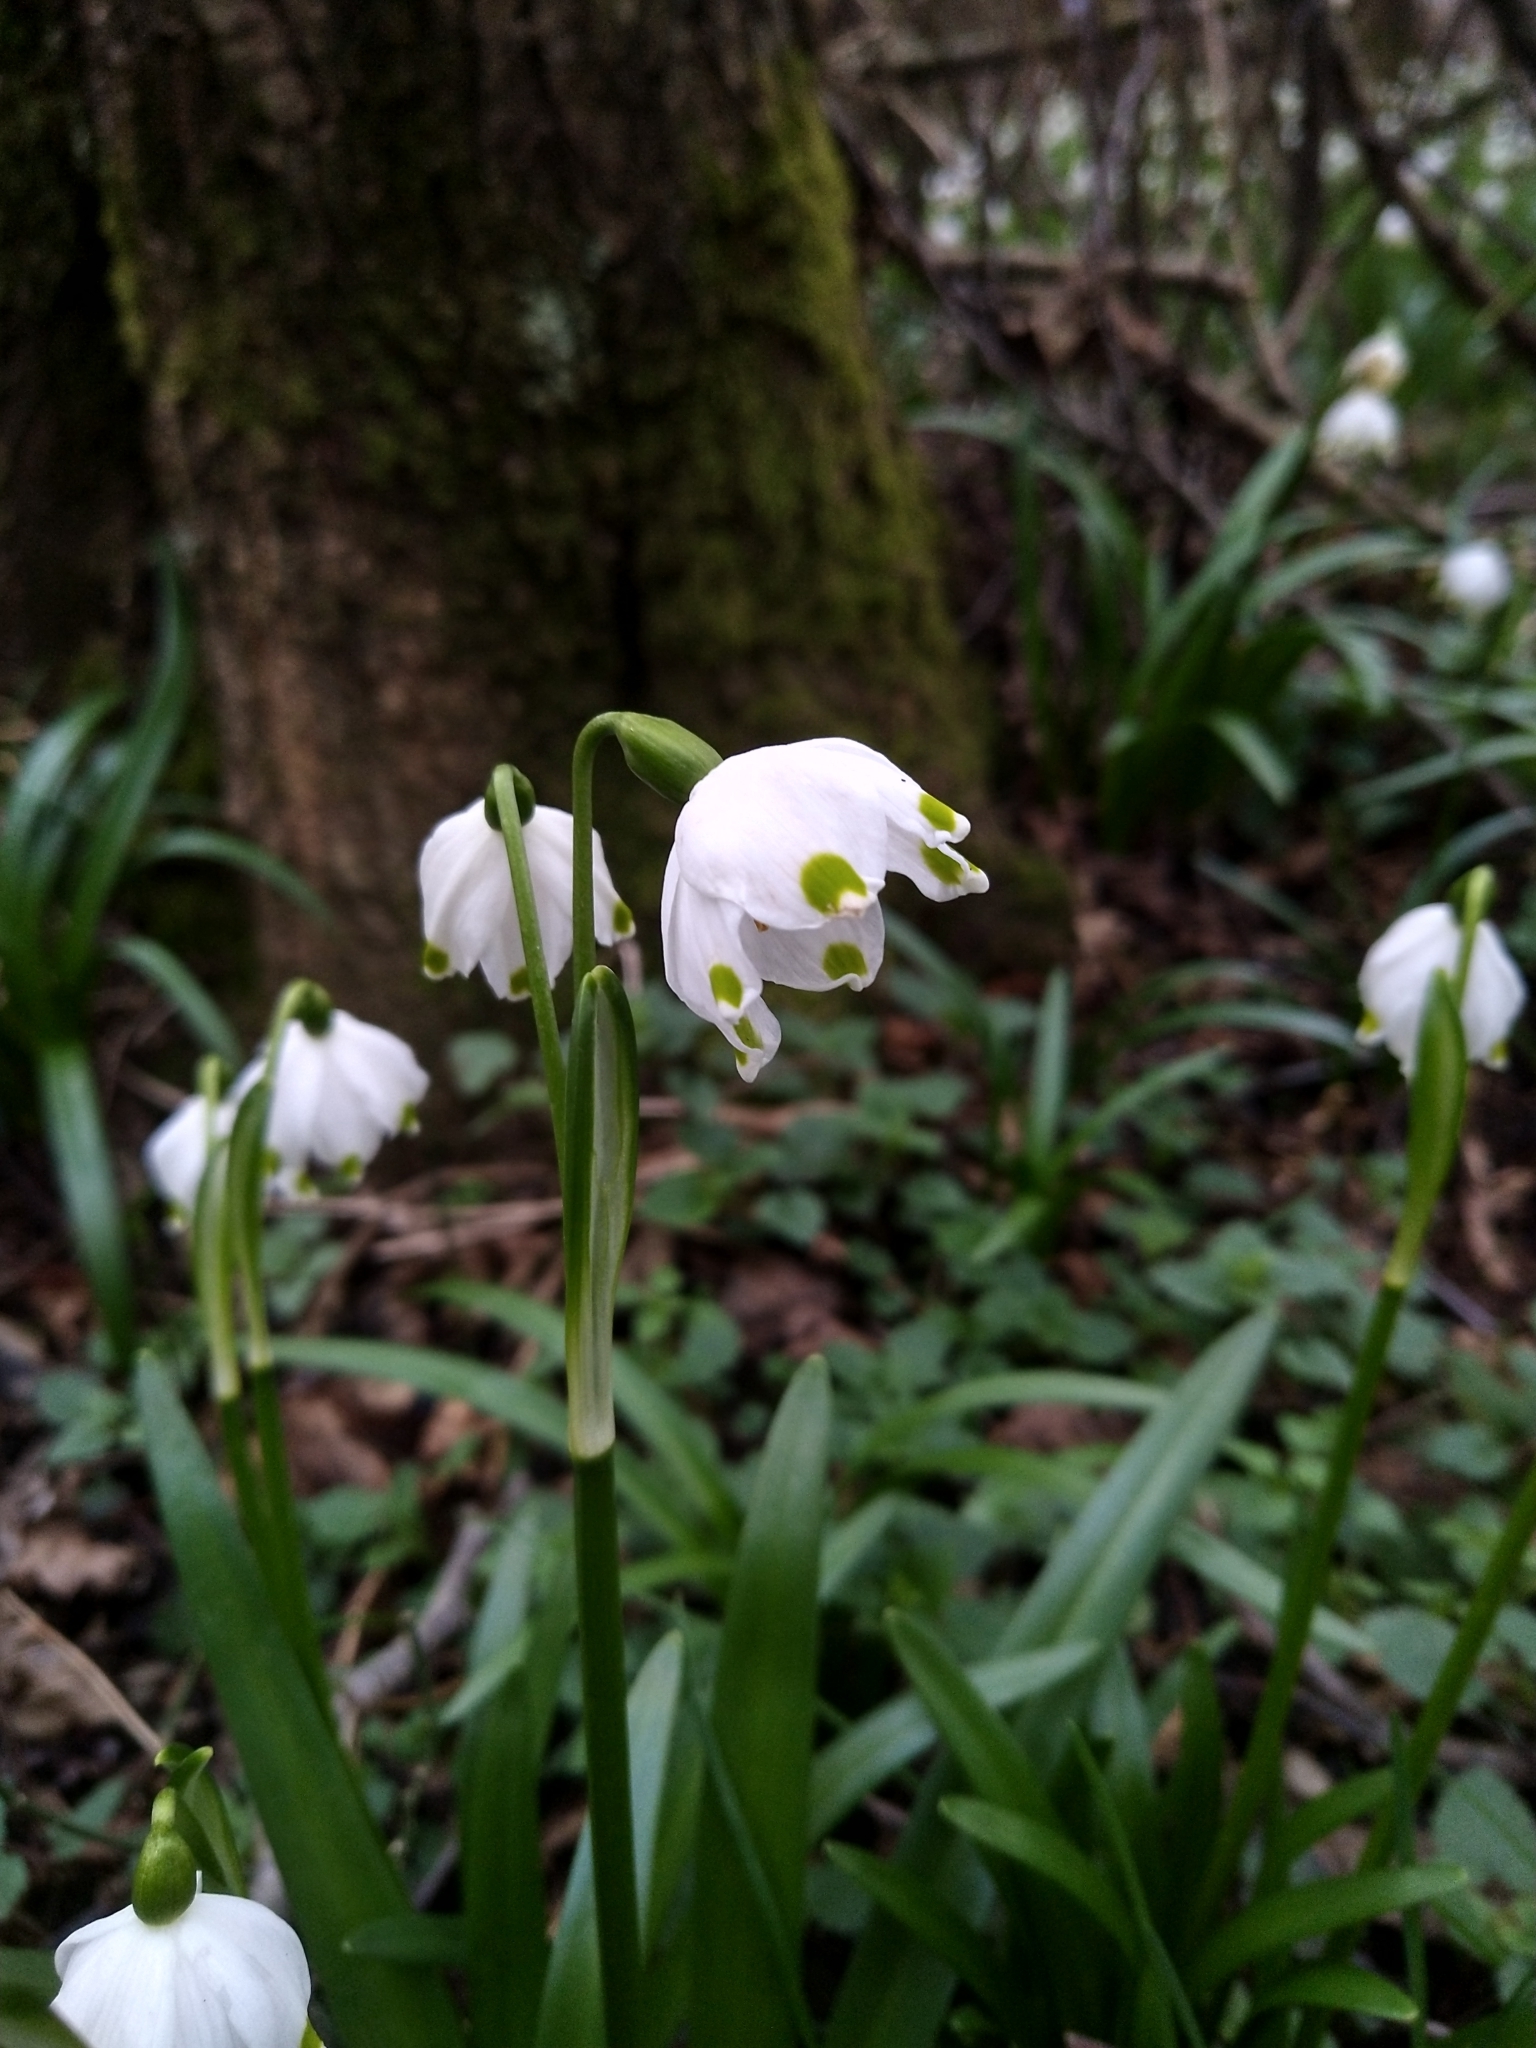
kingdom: Plantae
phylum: Tracheophyta
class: Liliopsida
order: Asparagales
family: Amaryllidaceae
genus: Leucojum
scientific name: Leucojum vernum
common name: Spring snowflake
